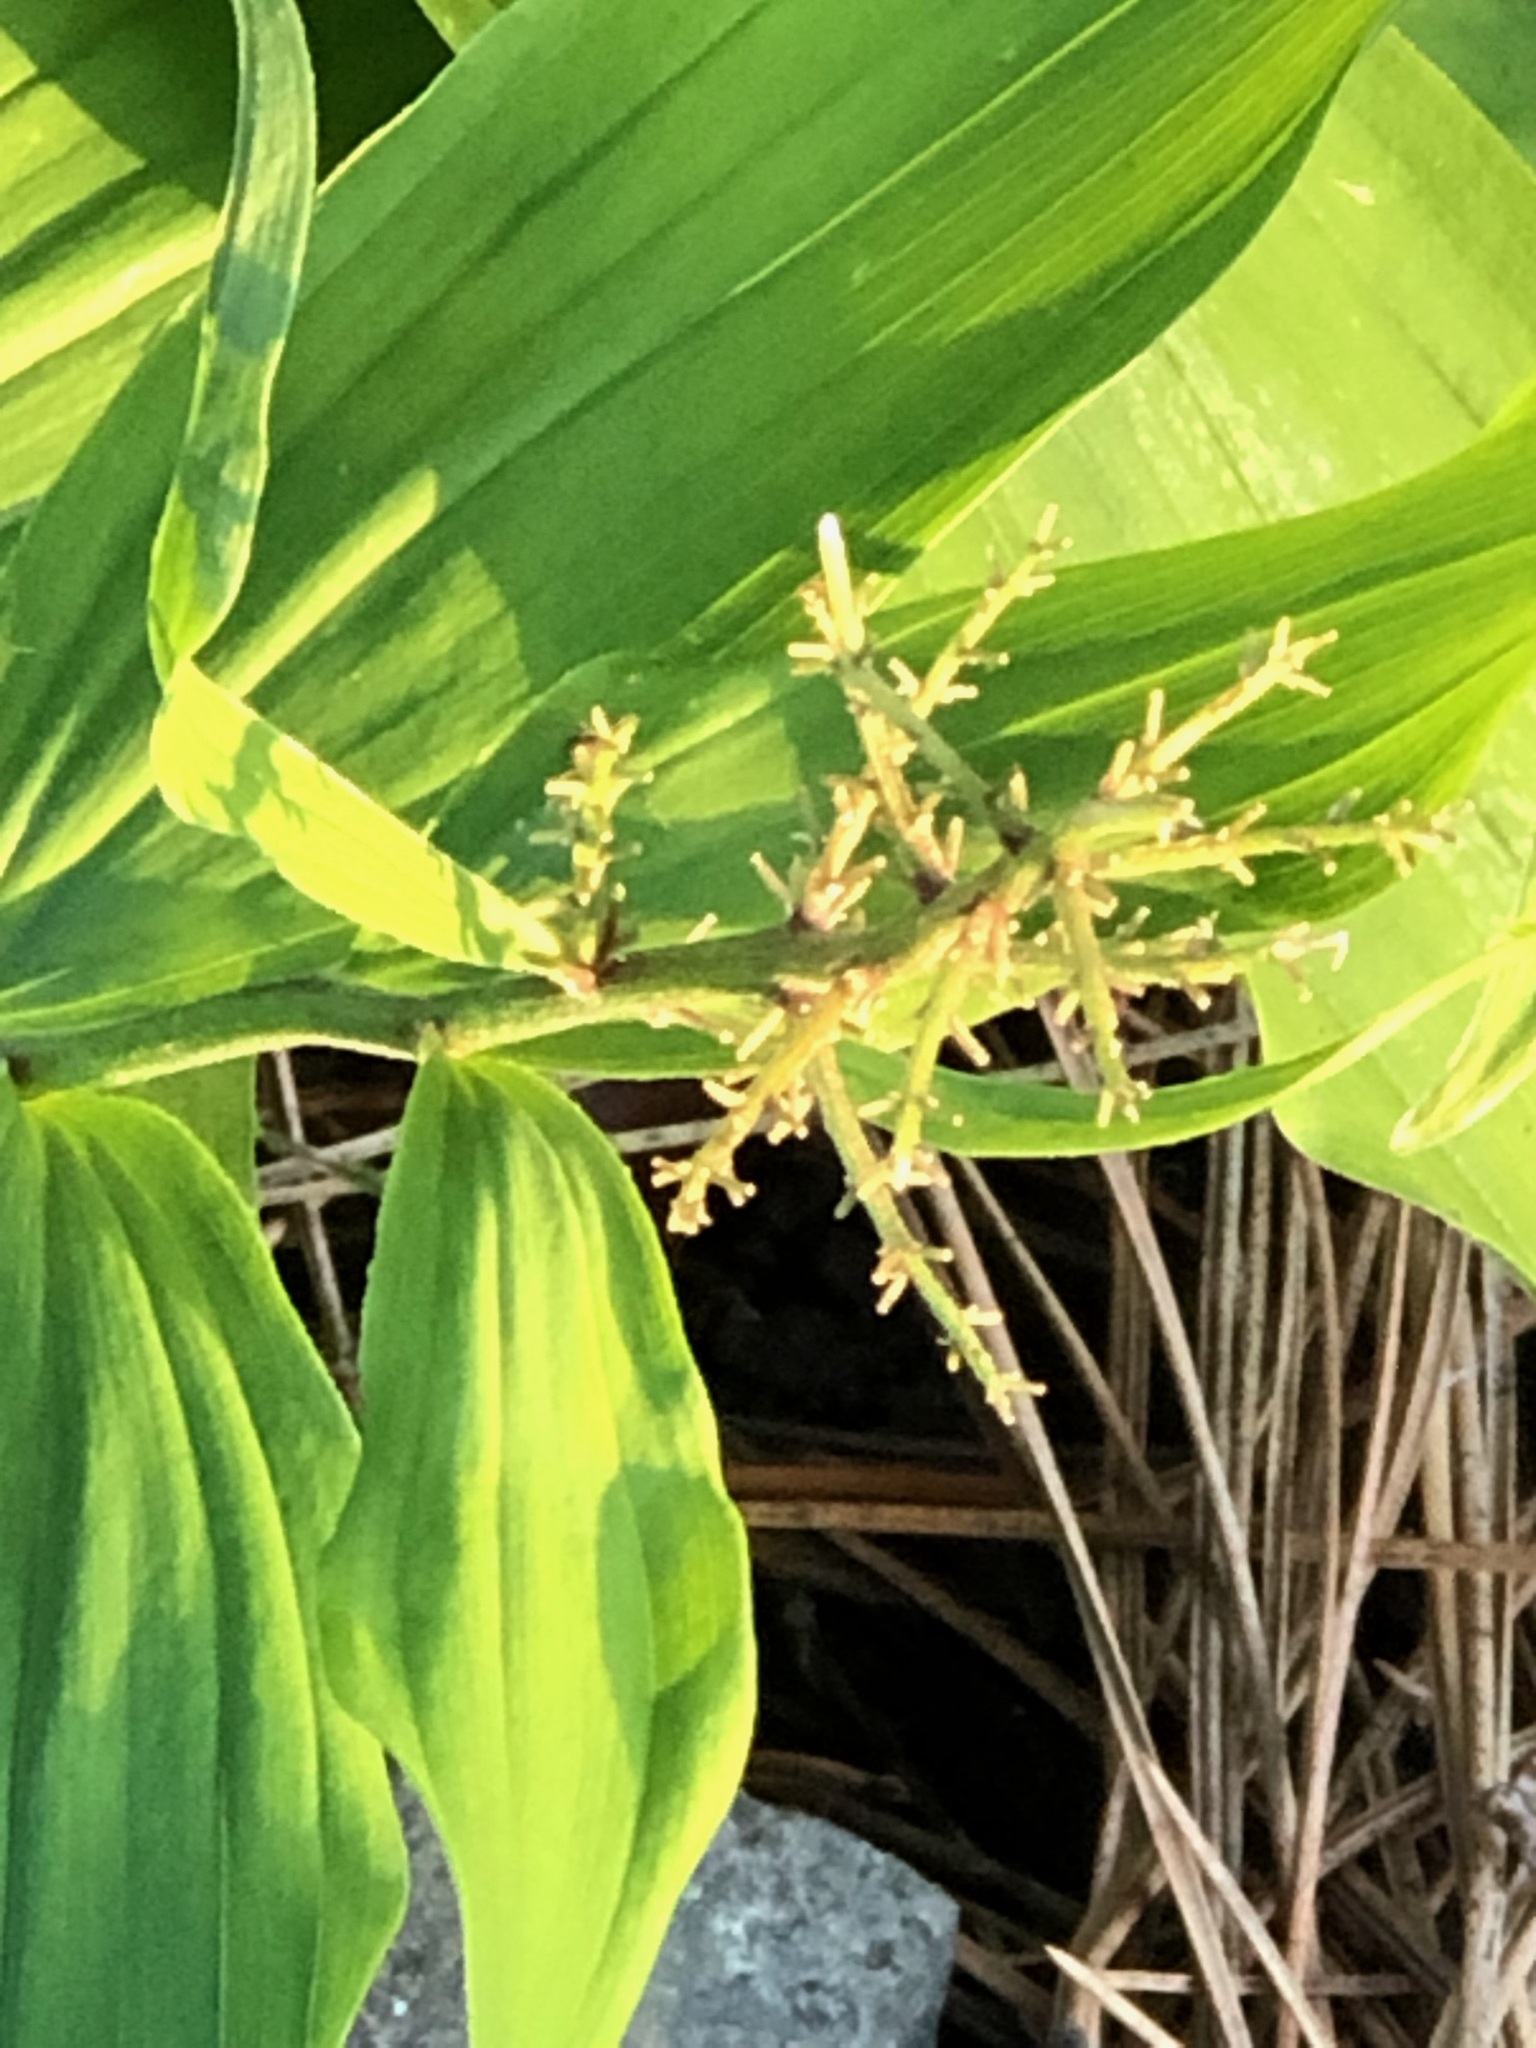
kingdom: Plantae
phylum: Tracheophyta
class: Liliopsida
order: Asparagales
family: Asparagaceae
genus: Maianthemum
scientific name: Maianthemum racemosum
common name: False spikenard
